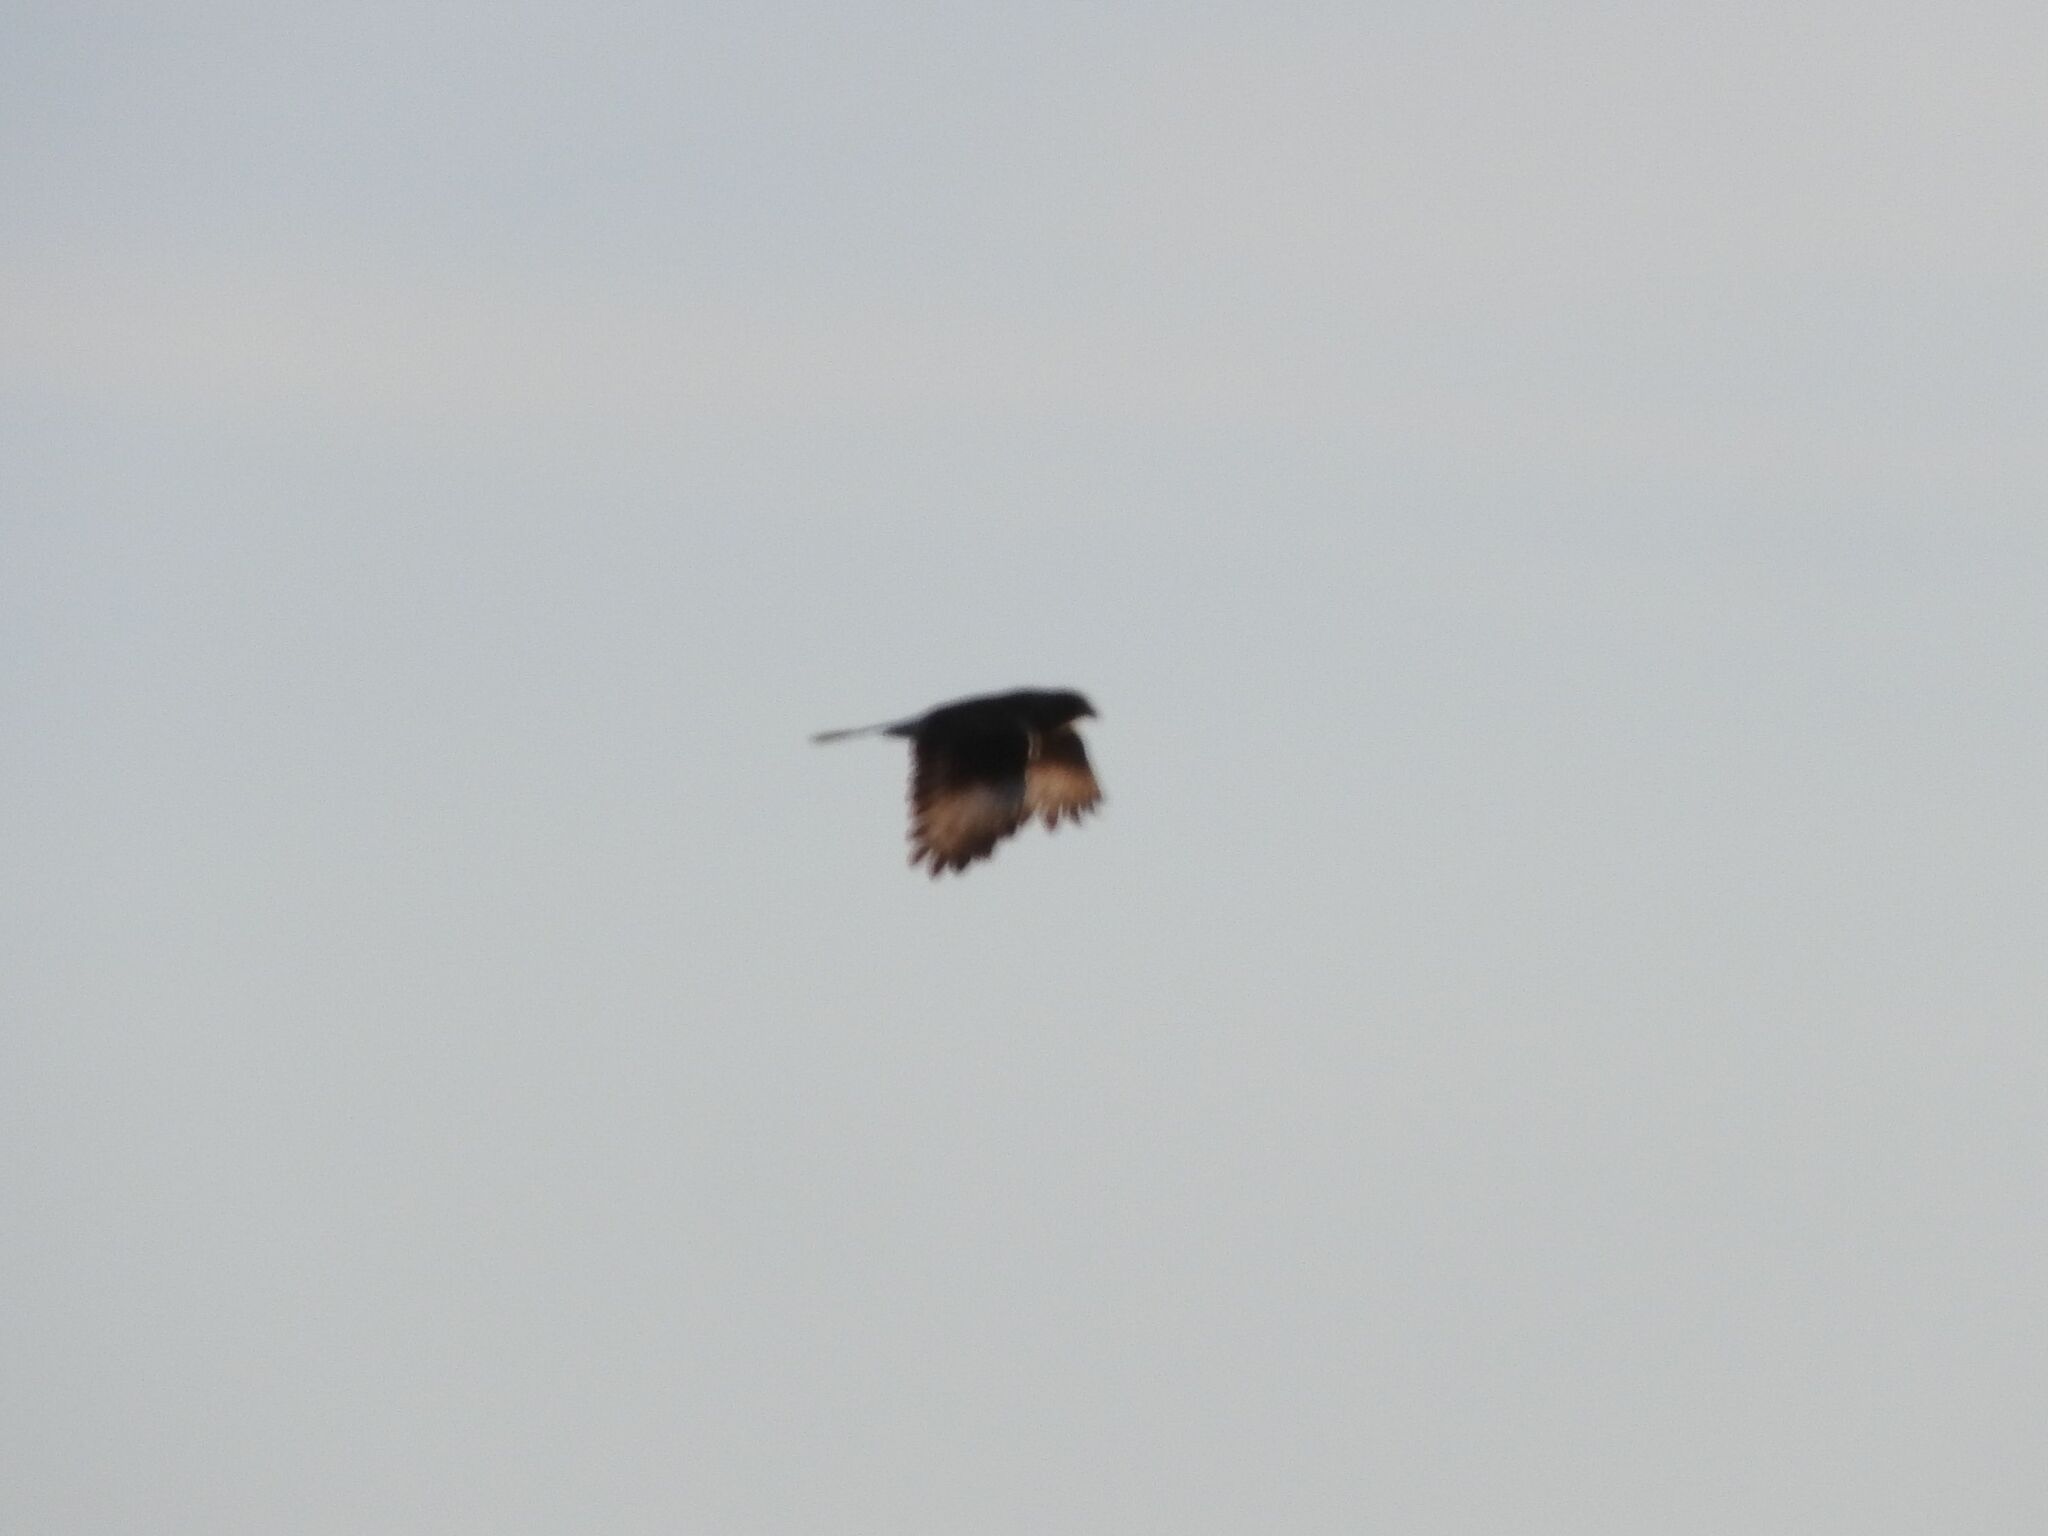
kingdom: Animalia
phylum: Chordata
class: Aves
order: Falconiformes
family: Falconidae
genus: Daptrius
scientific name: Daptrius
